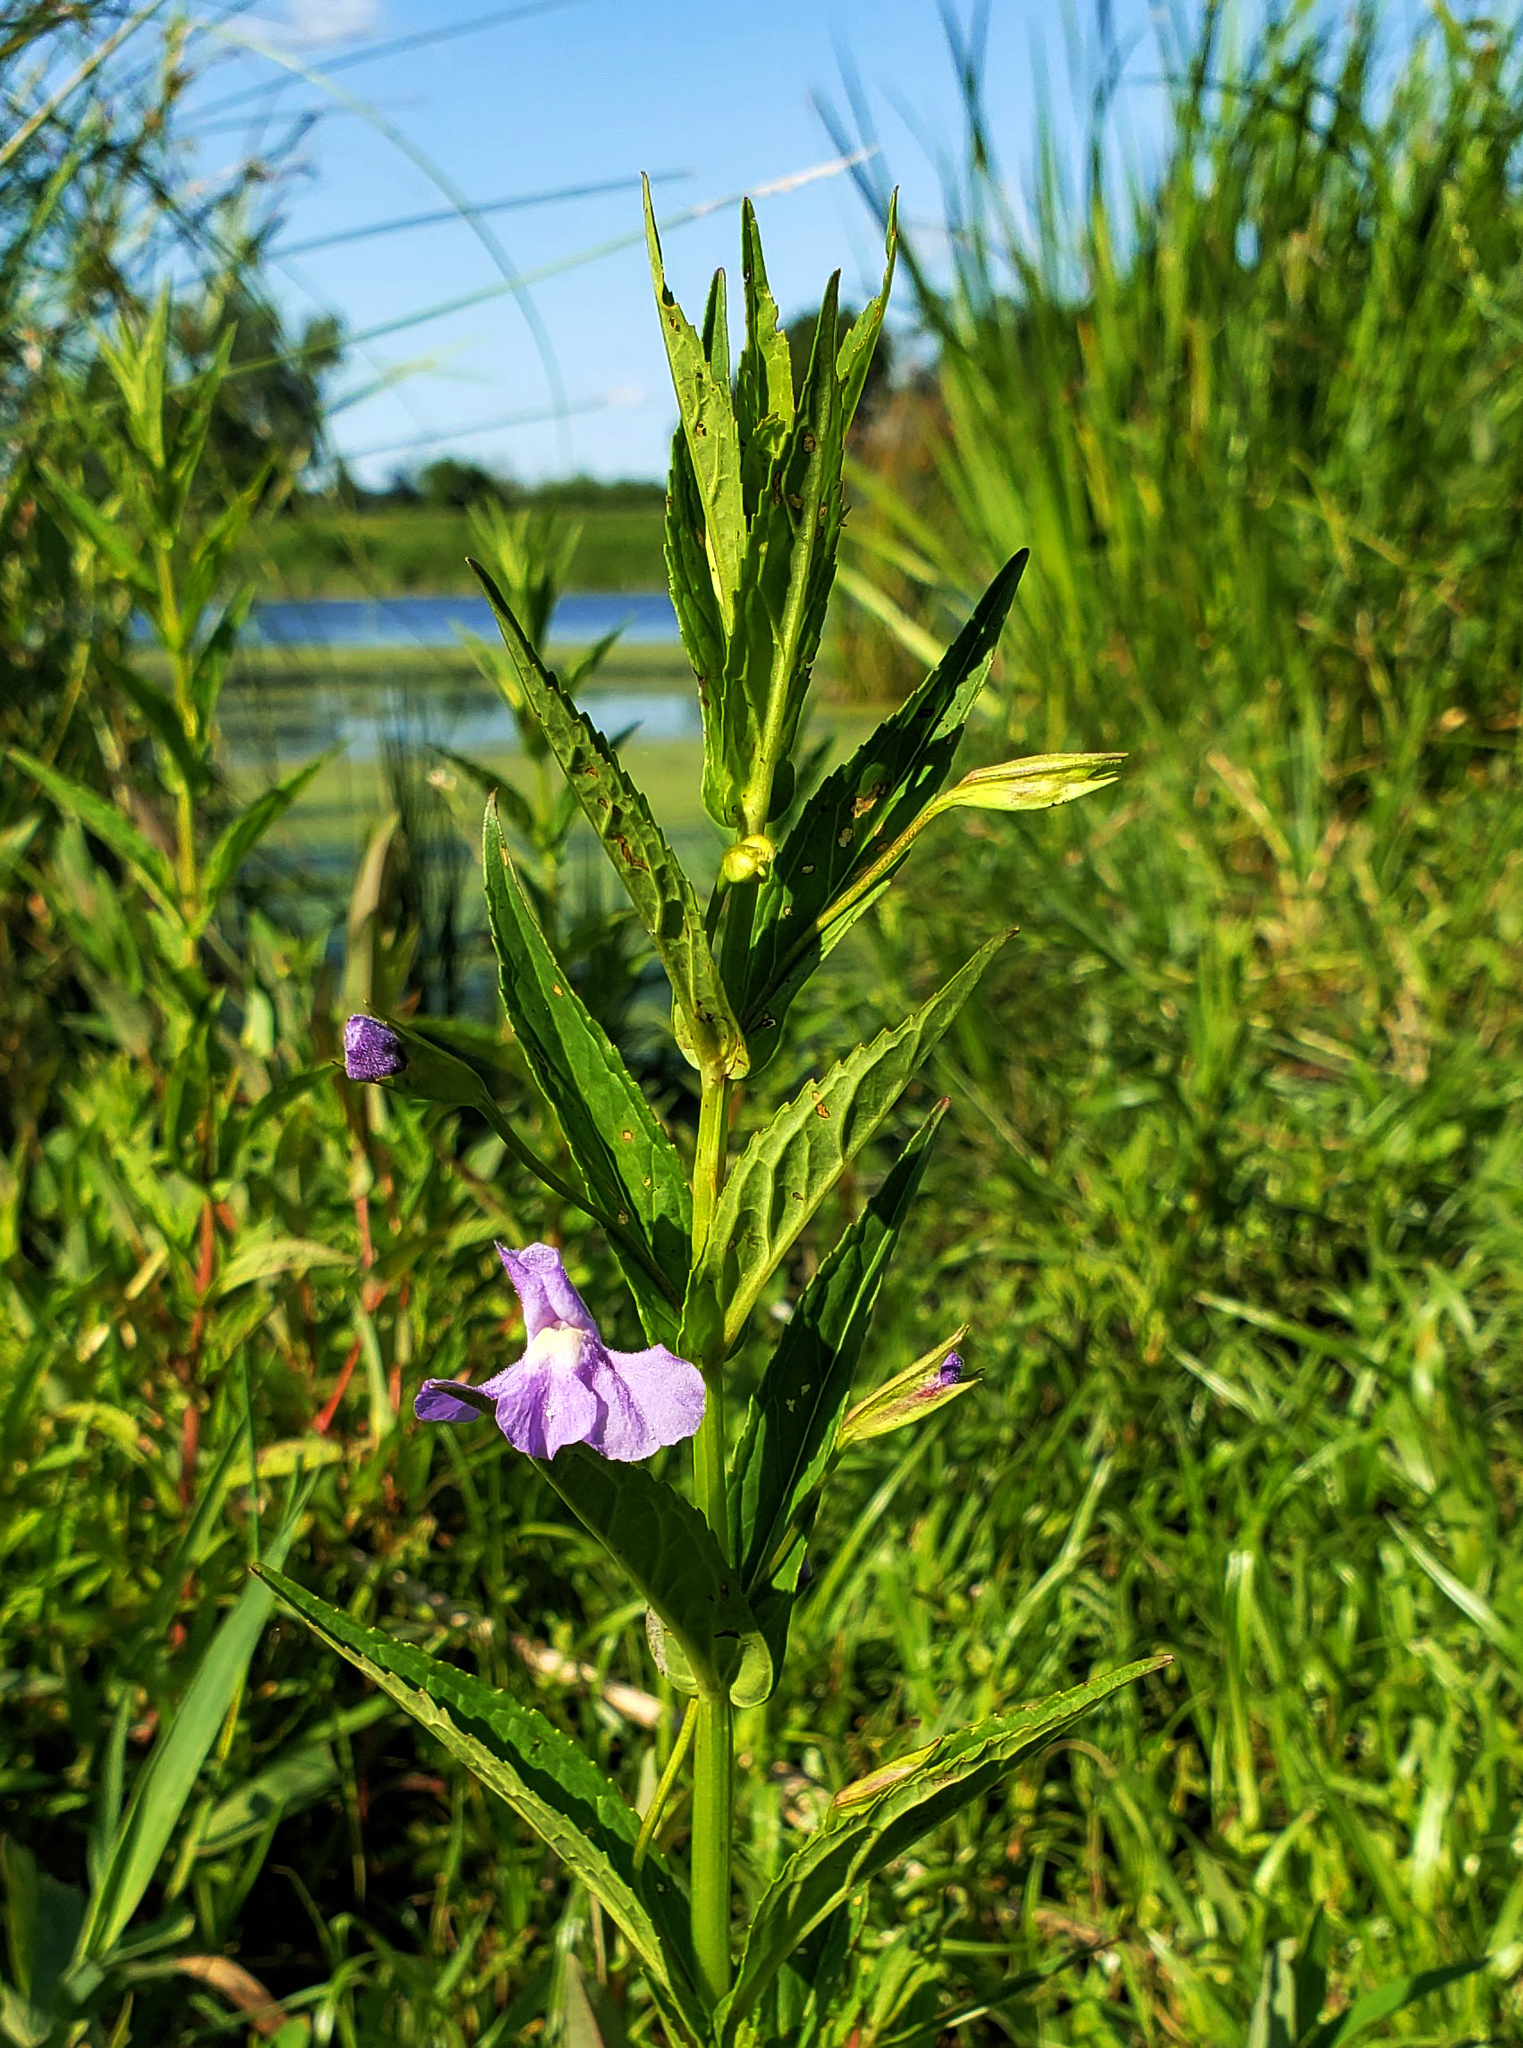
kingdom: Plantae
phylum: Tracheophyta
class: Magnoliopsida
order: Lamiales
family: Phrymaceae
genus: Mimulus
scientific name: Mimulus ringens
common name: Allegheny monkeyflower
